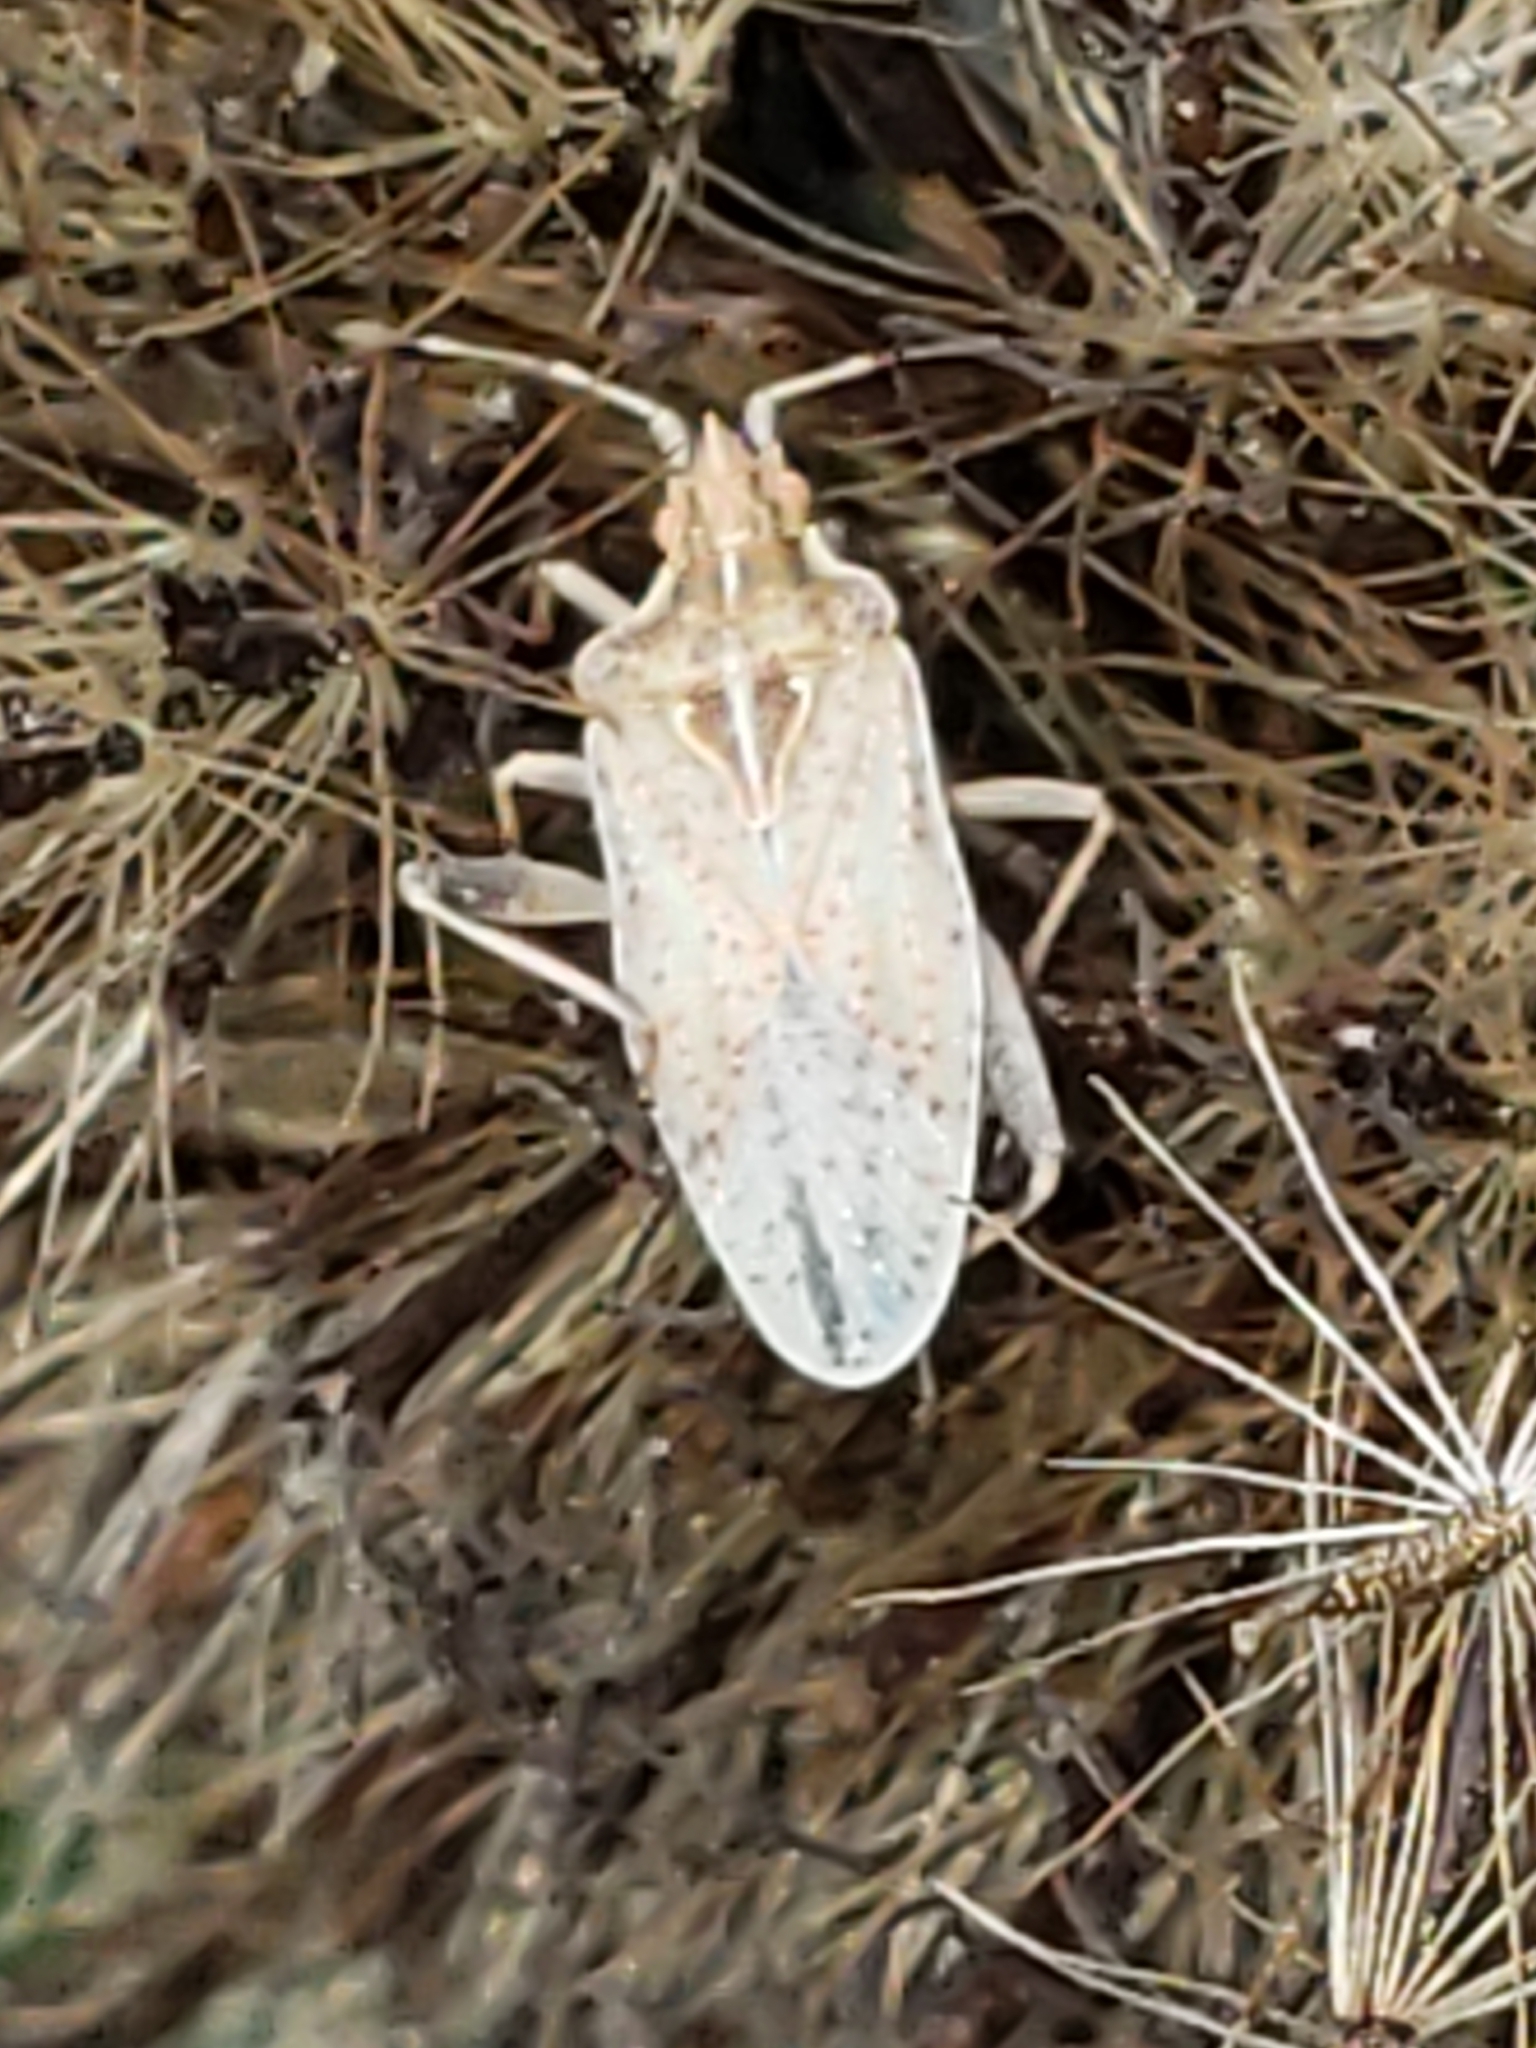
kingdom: Animalia
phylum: Arthropoda
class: Insecta
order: Hemiptera
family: Rhopalidae
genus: Harmostes
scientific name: Harmostes fraterculus
